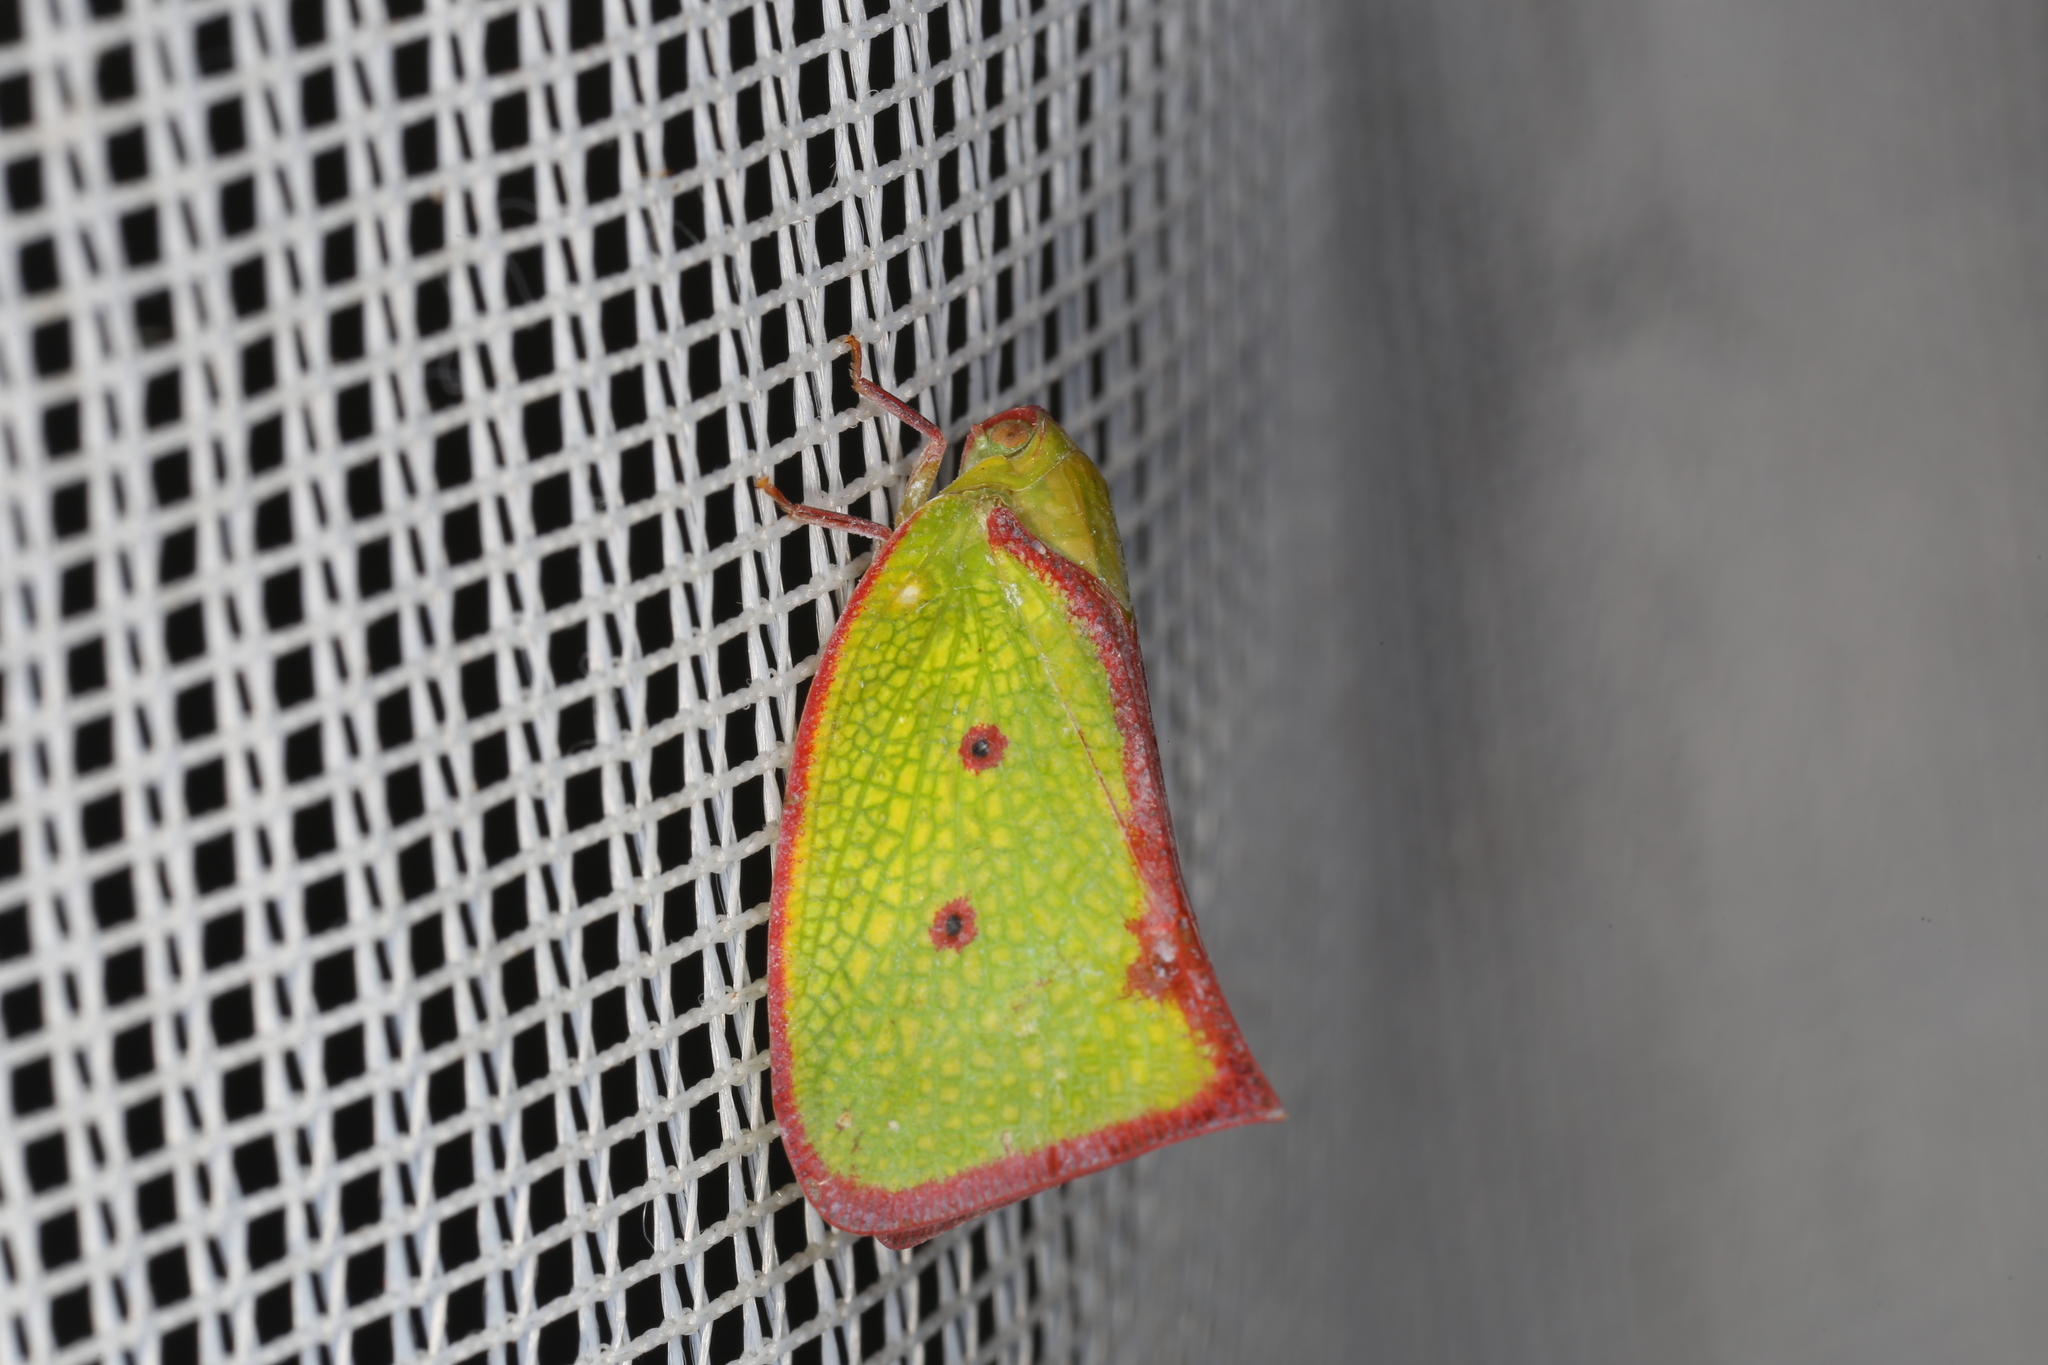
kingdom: Animalia
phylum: Arthropoda
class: Insecta
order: Hemiptera
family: Flatidae
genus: Carthaeomorpha
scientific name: Carthaeomorpha rufipes
